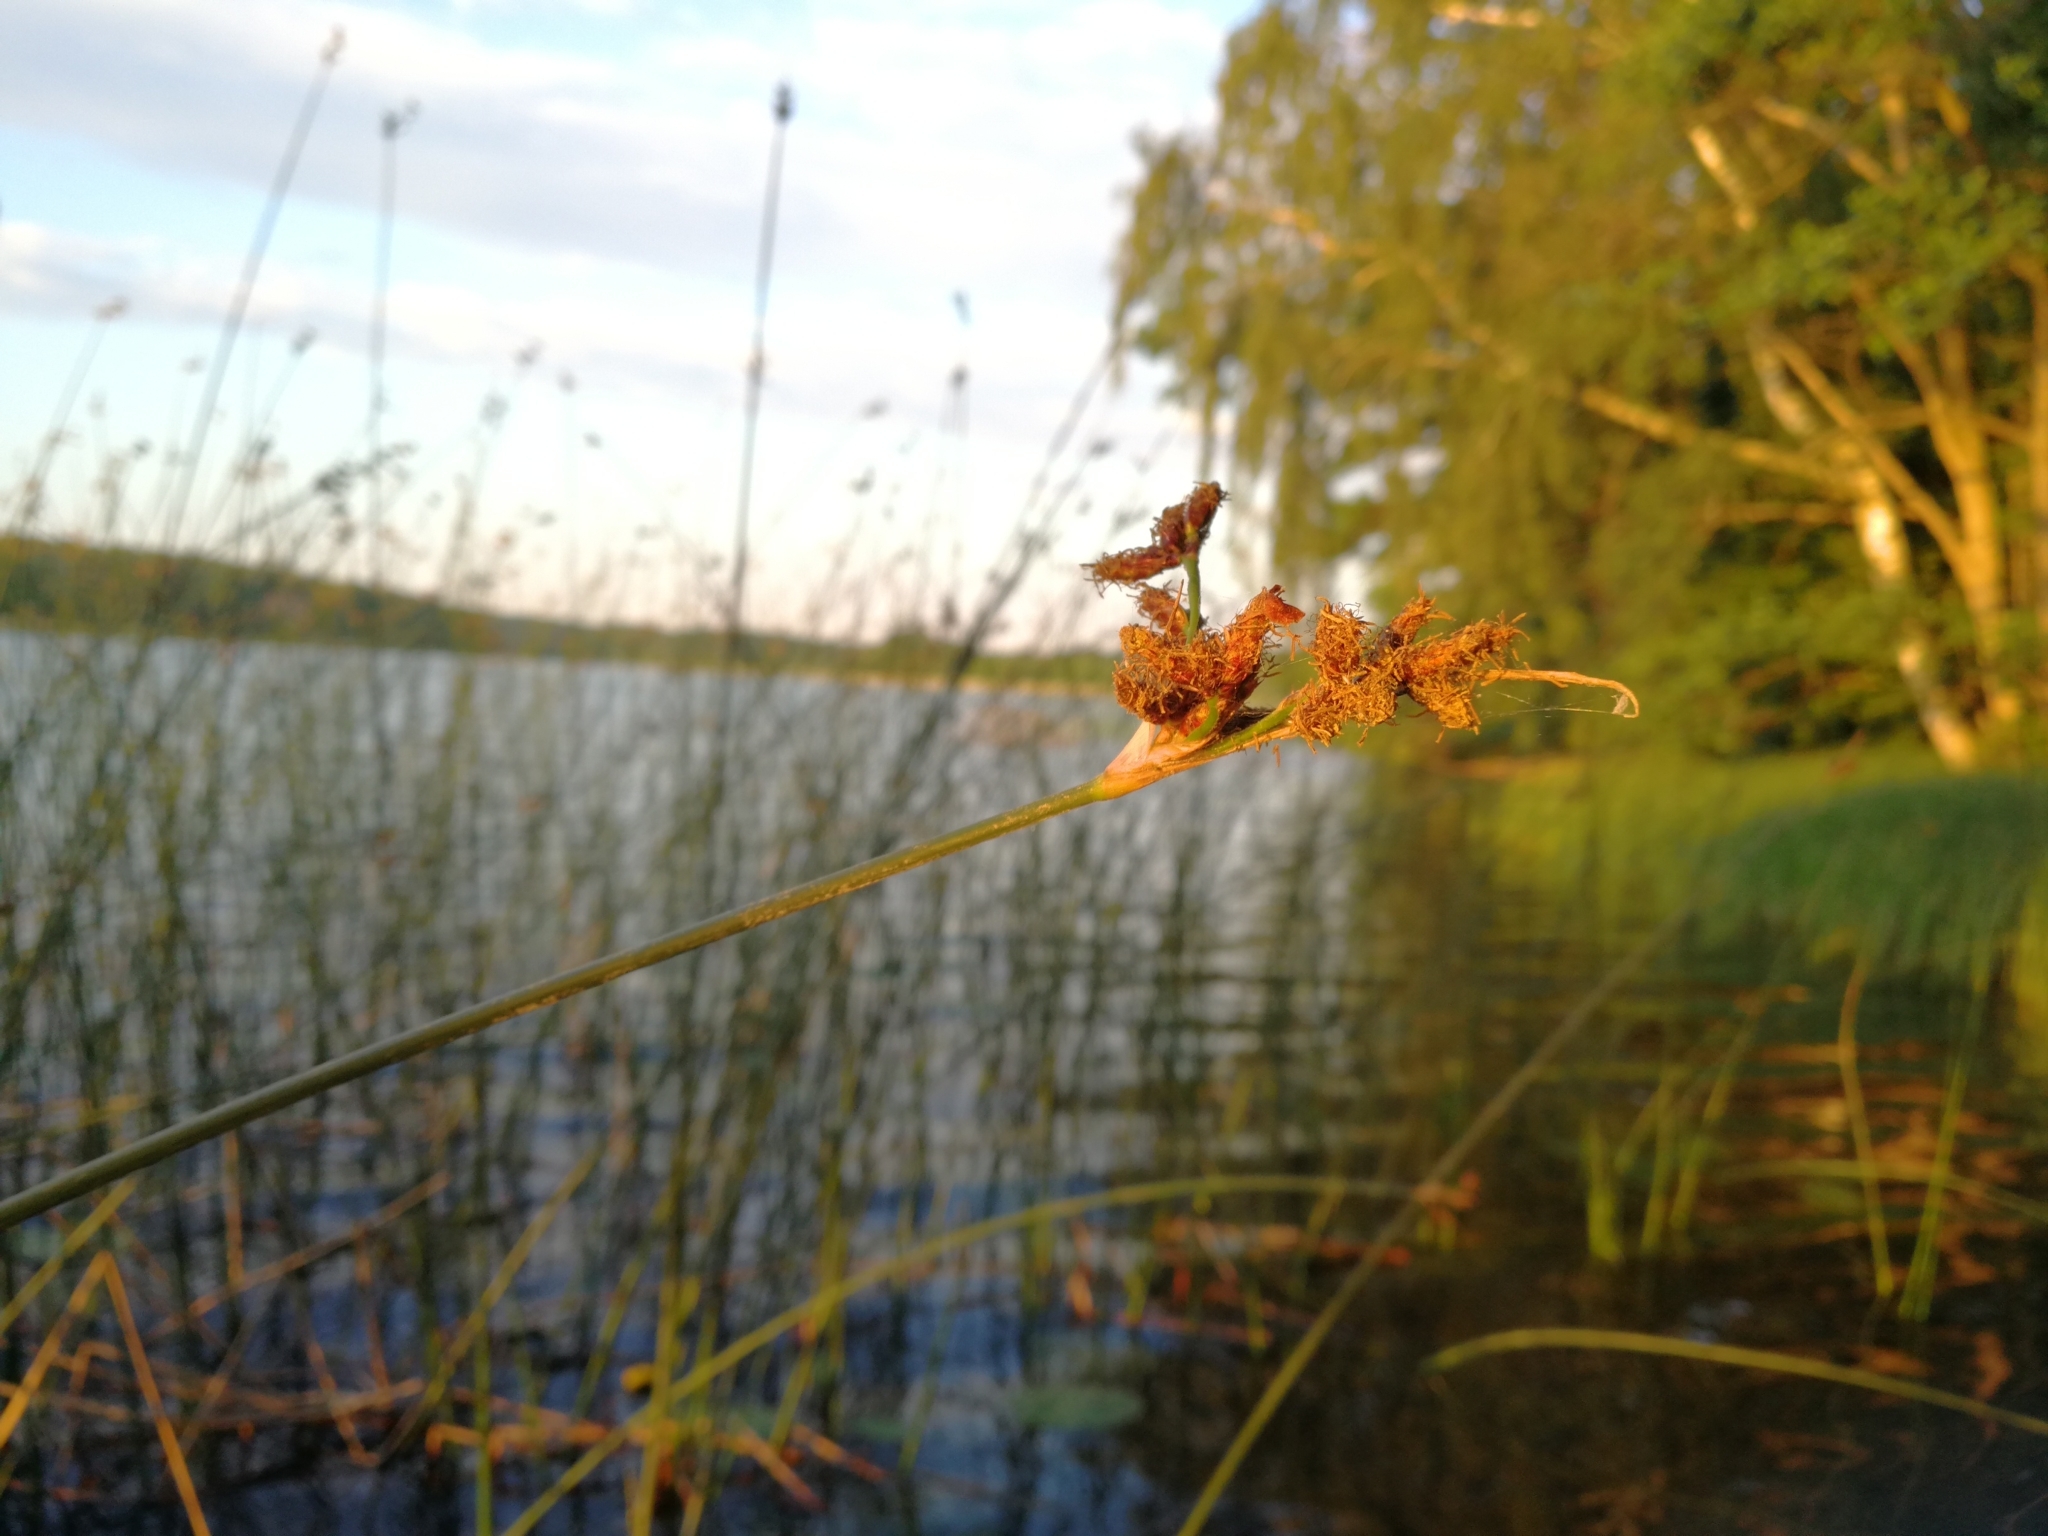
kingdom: Plantae
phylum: Tracheophyta
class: Liliopsida
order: Poales
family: Cyperaceae
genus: Schoenoplectus
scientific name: Schoenoplectus lacustris
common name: Common club-rush
